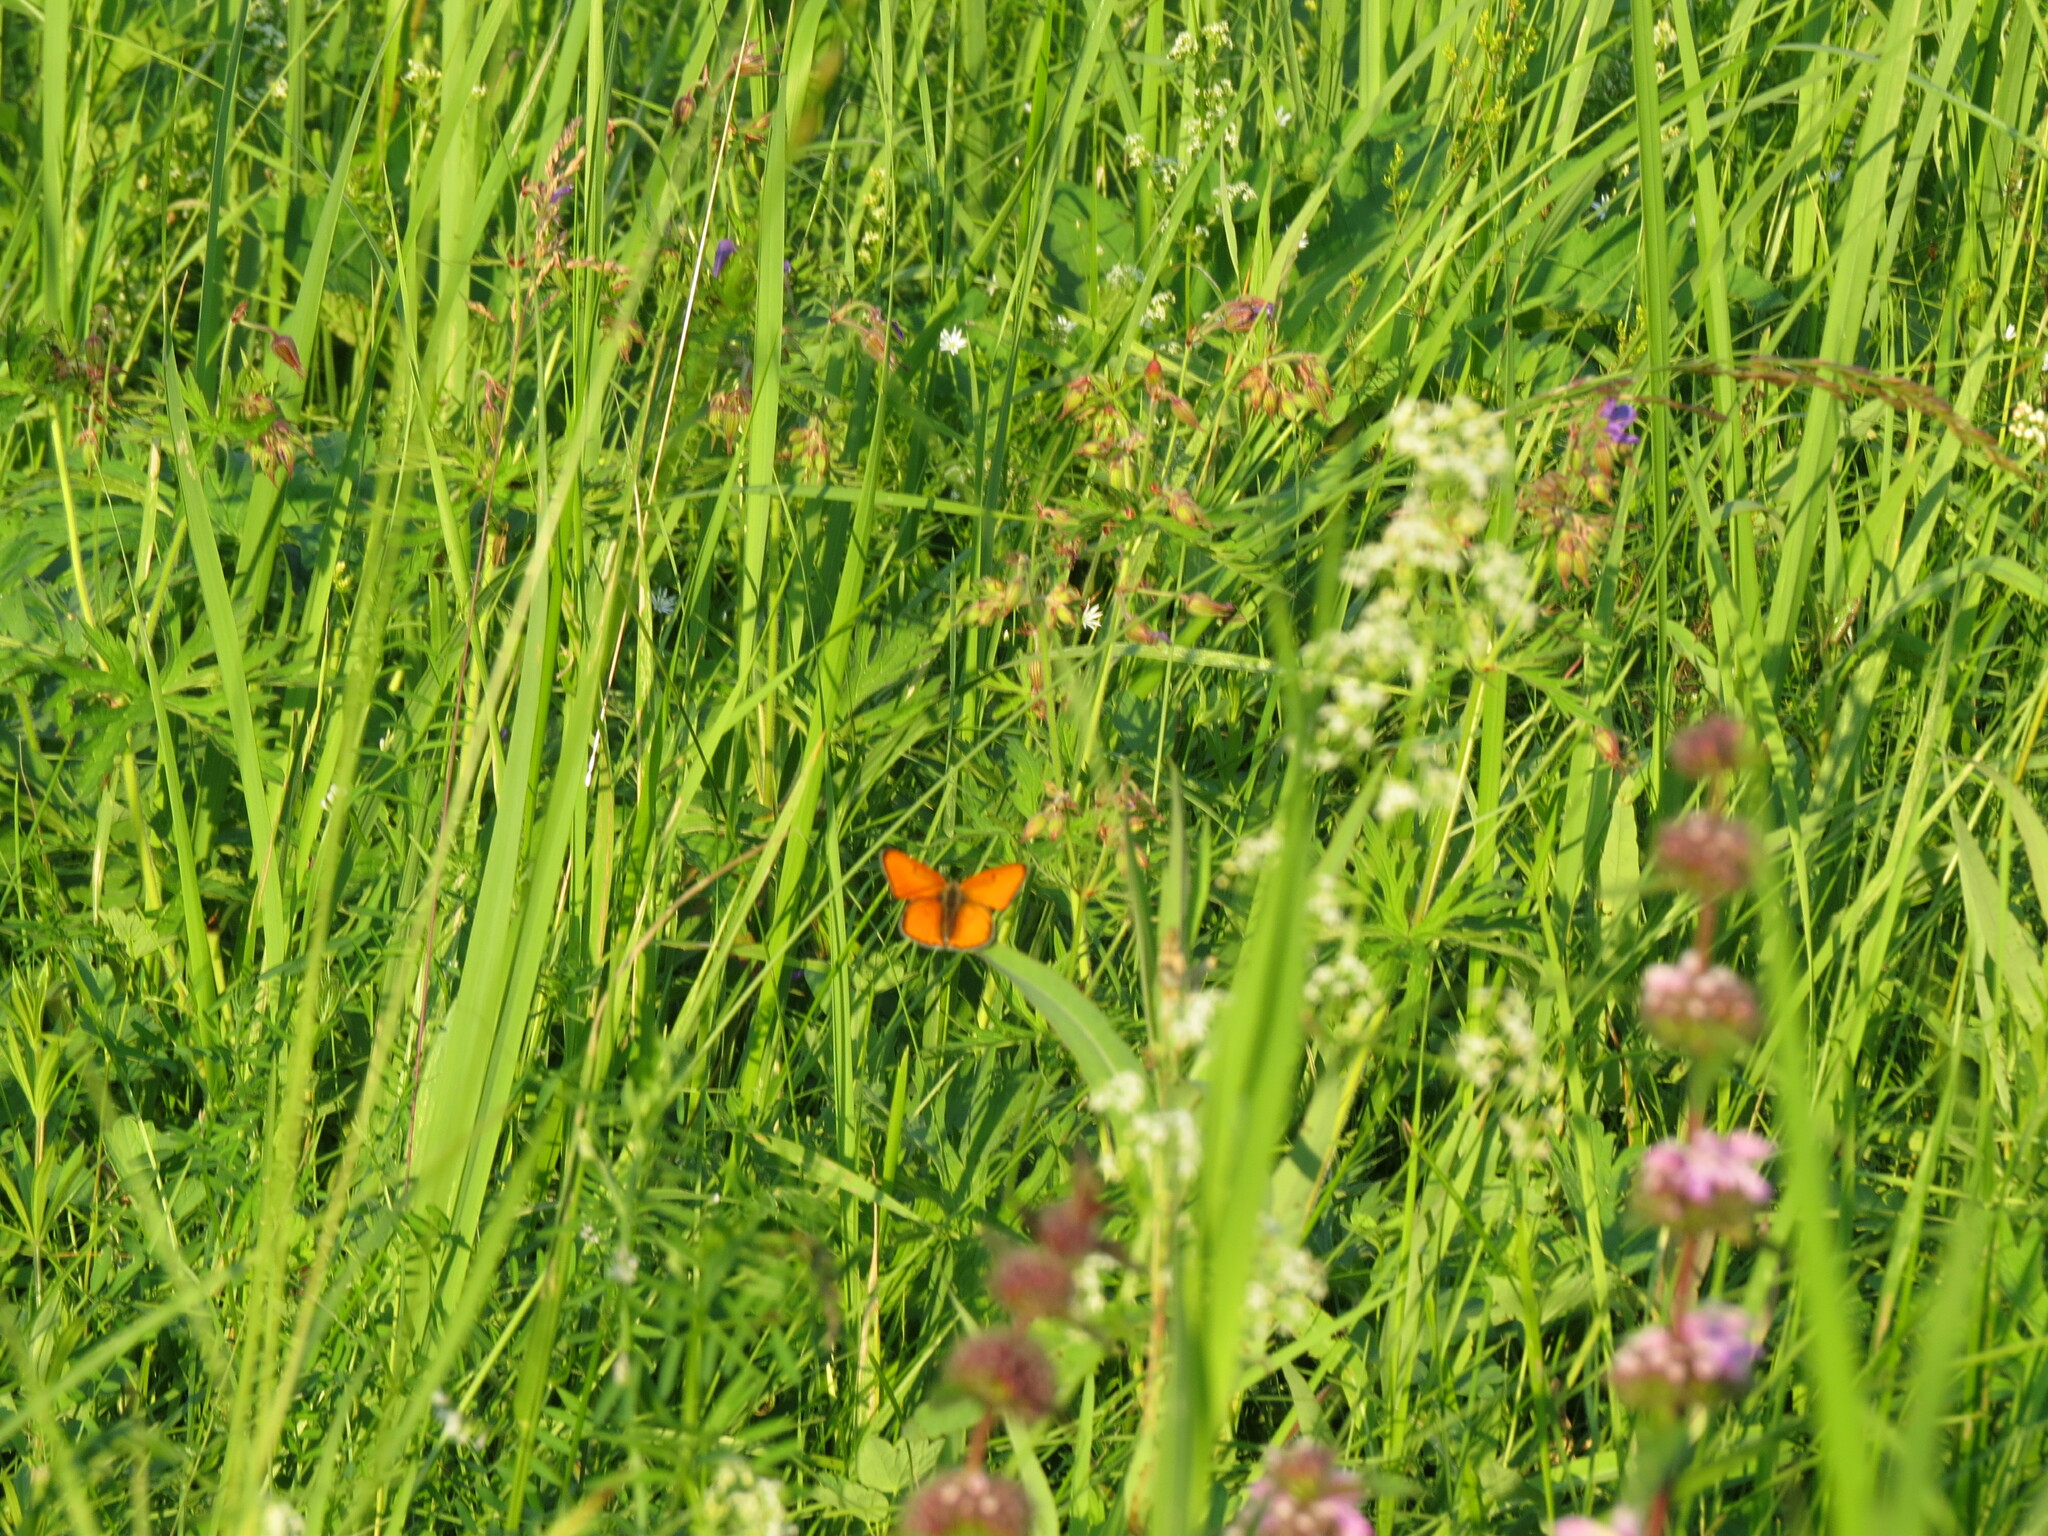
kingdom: Animalia
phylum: Arthropoda
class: Insecta
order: Lepidoptera
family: Lycaenidae
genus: Lycaena
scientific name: Lycaena dispar
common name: Large copper
